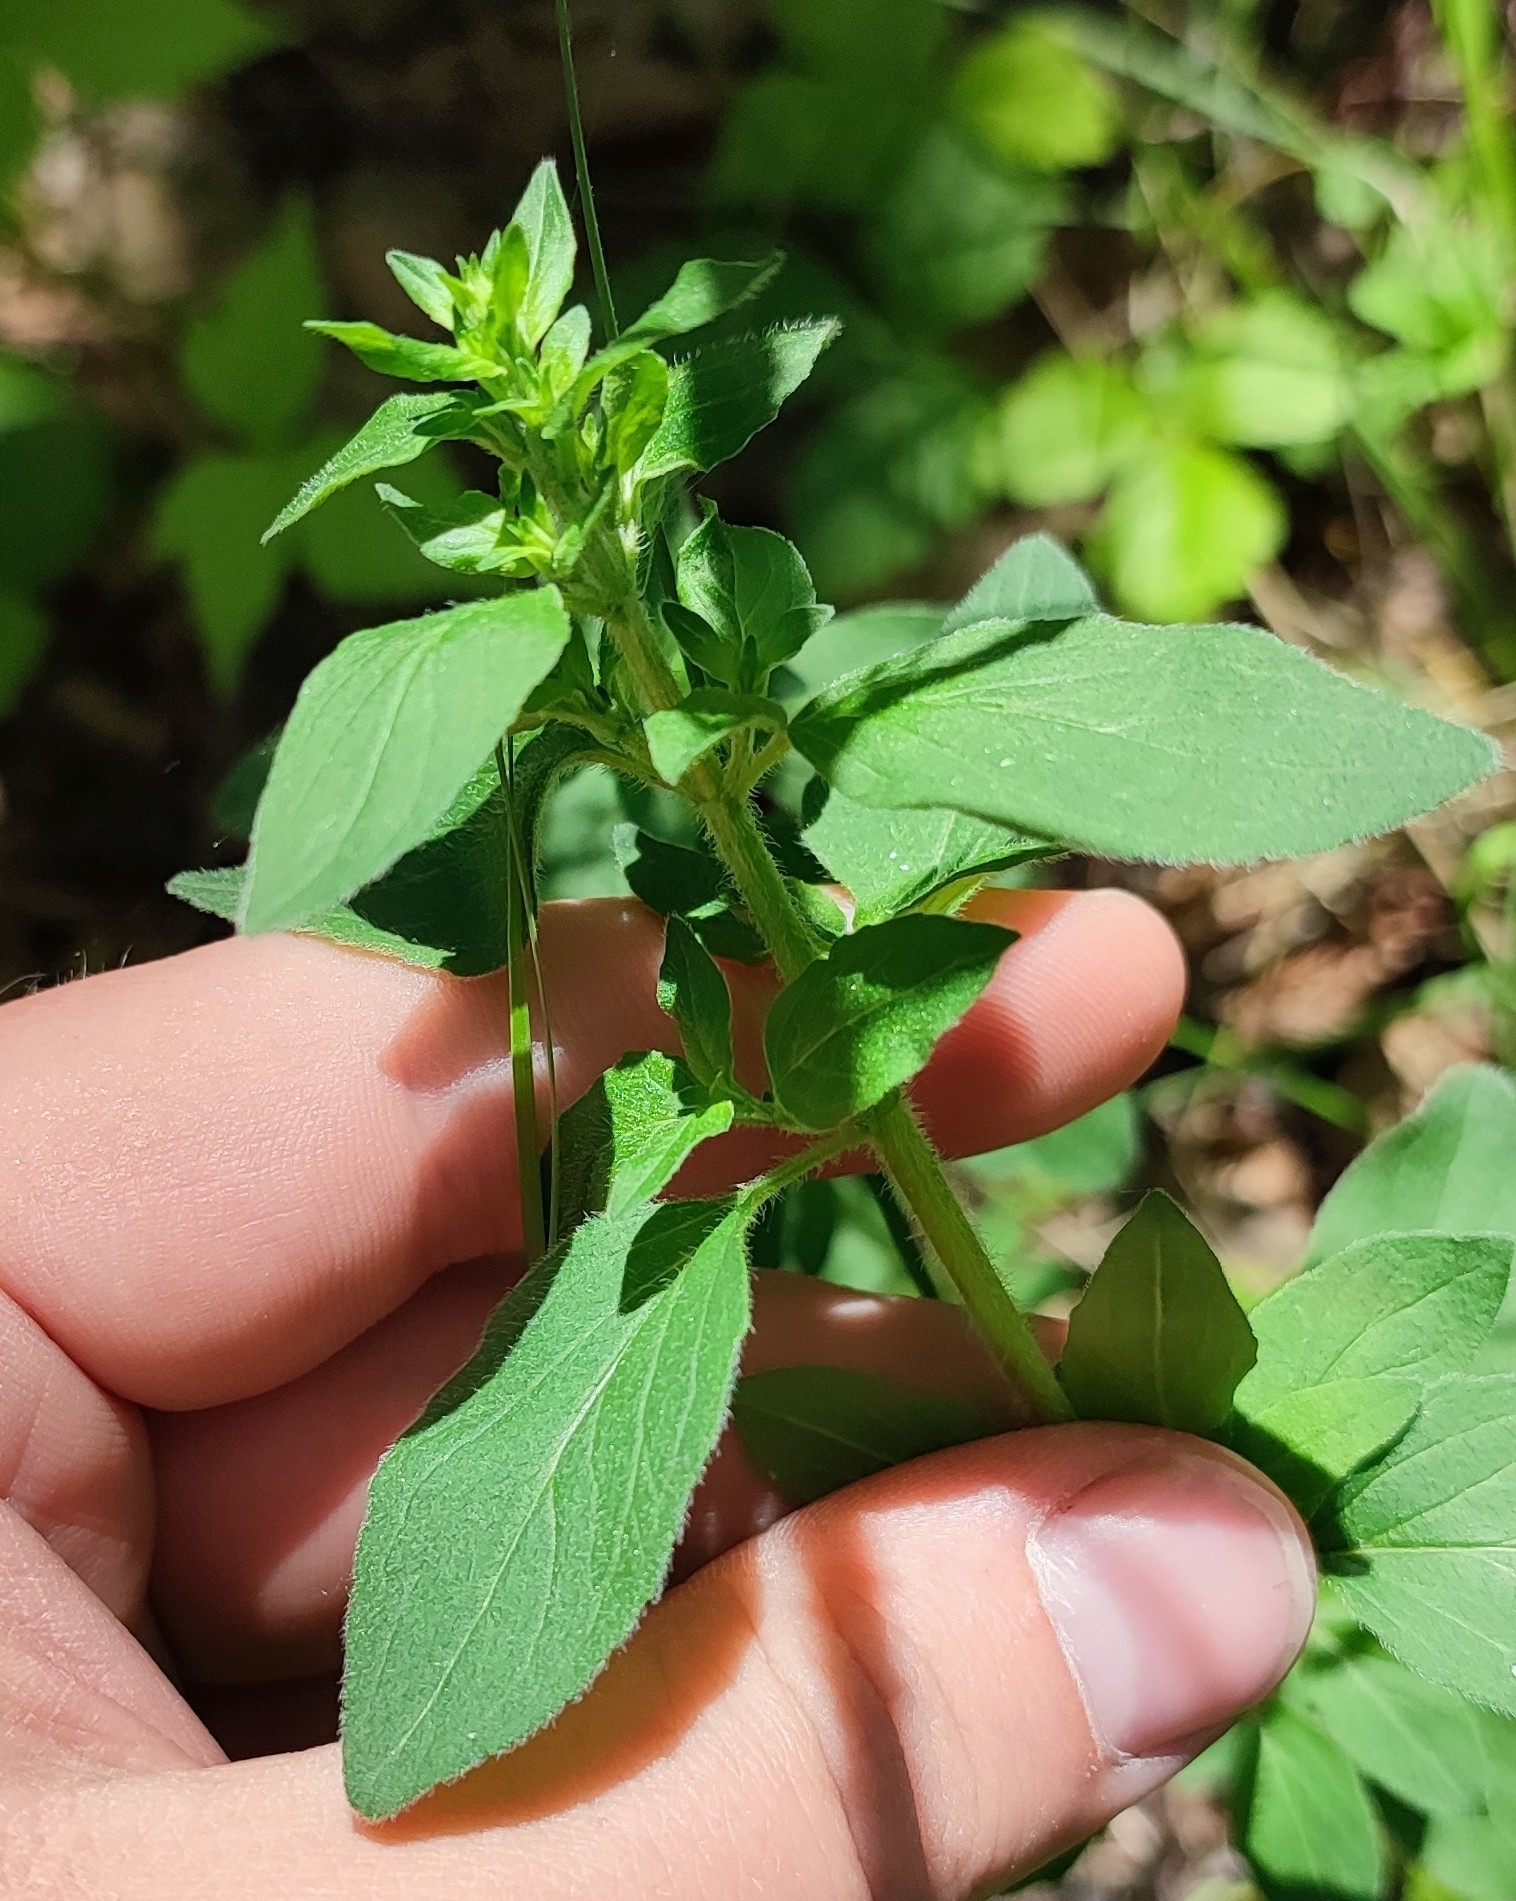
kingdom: Plantae
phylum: Tracheophyta
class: Magnoliopsida
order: Lamiales
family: Lamiaceae
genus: Origanum
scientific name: Origanum vulgare
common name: Wild marjoram
